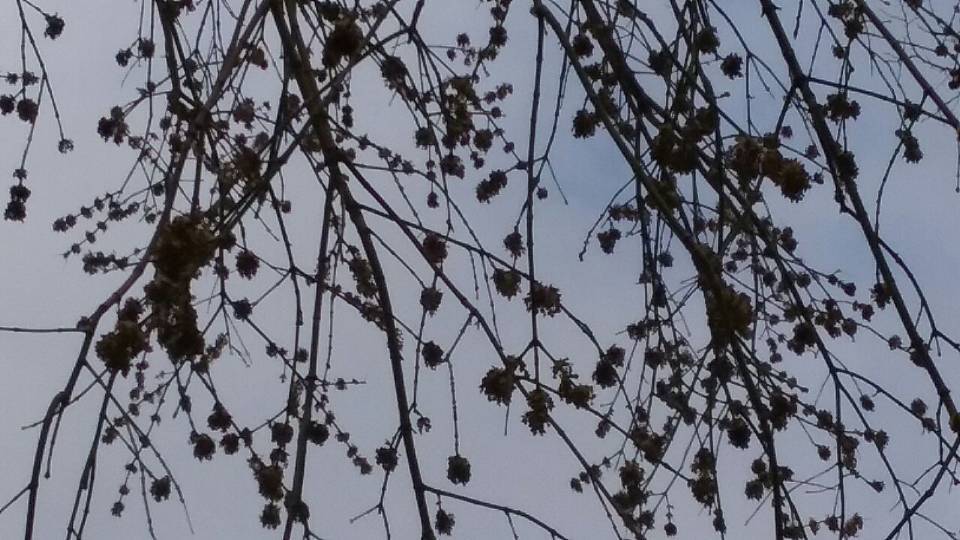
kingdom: Plantae
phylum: Tracheophyta
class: Magnoliopsida
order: Sapindales
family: Sapindaceae
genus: Acer
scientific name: Acer rubrum
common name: Red maple
